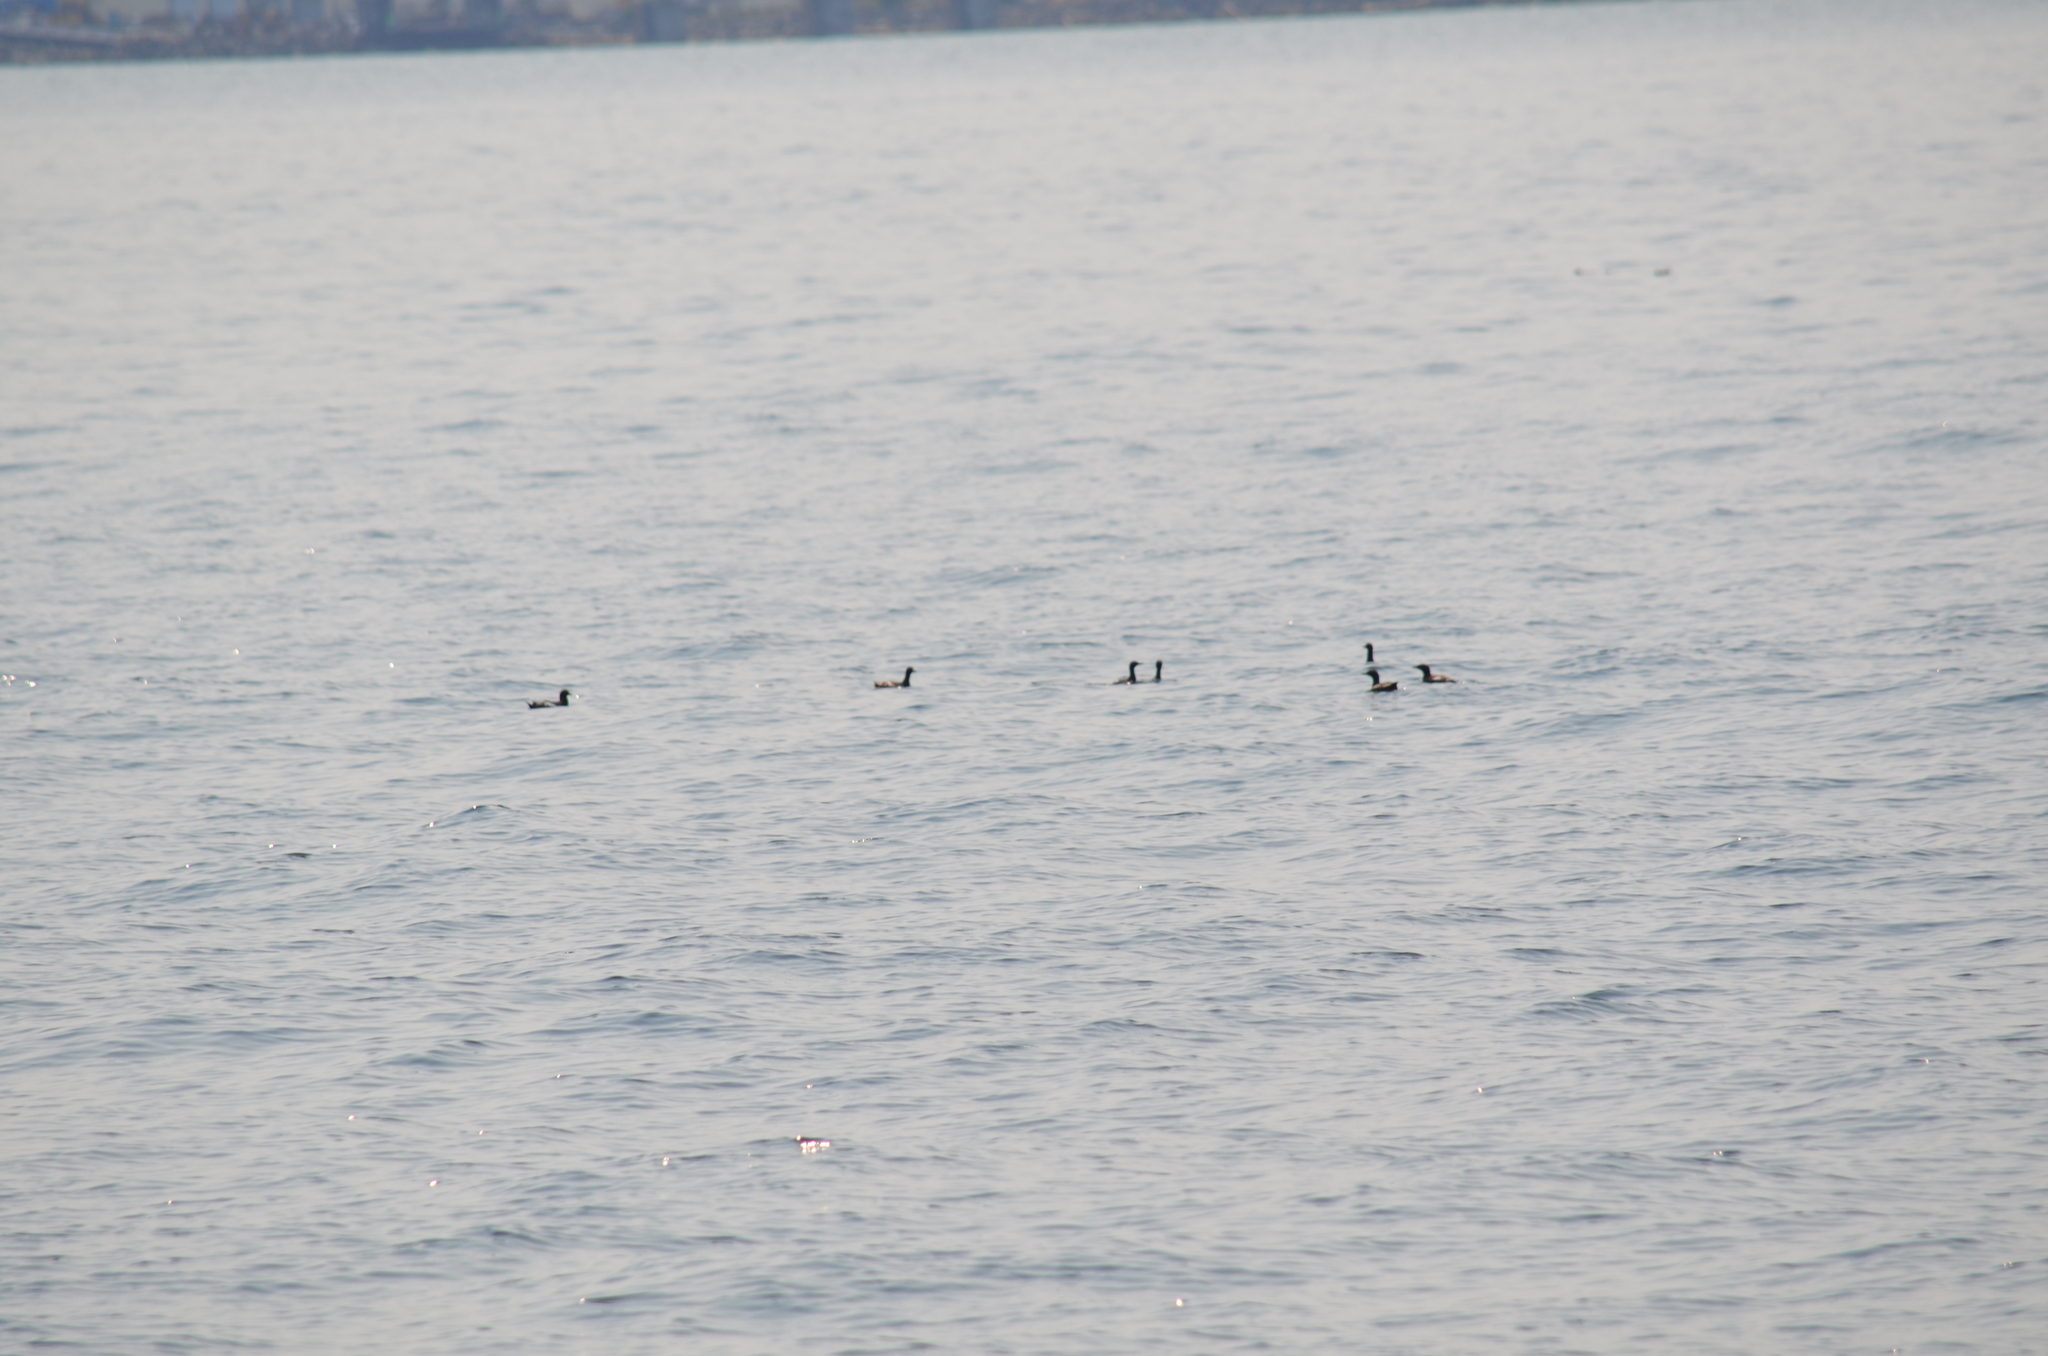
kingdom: Animalia
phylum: Chordata
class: Aves
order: Charadriiformes
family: Alcidae
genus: Cepphus
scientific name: Cepphus columba
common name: Pigeon guillemot
